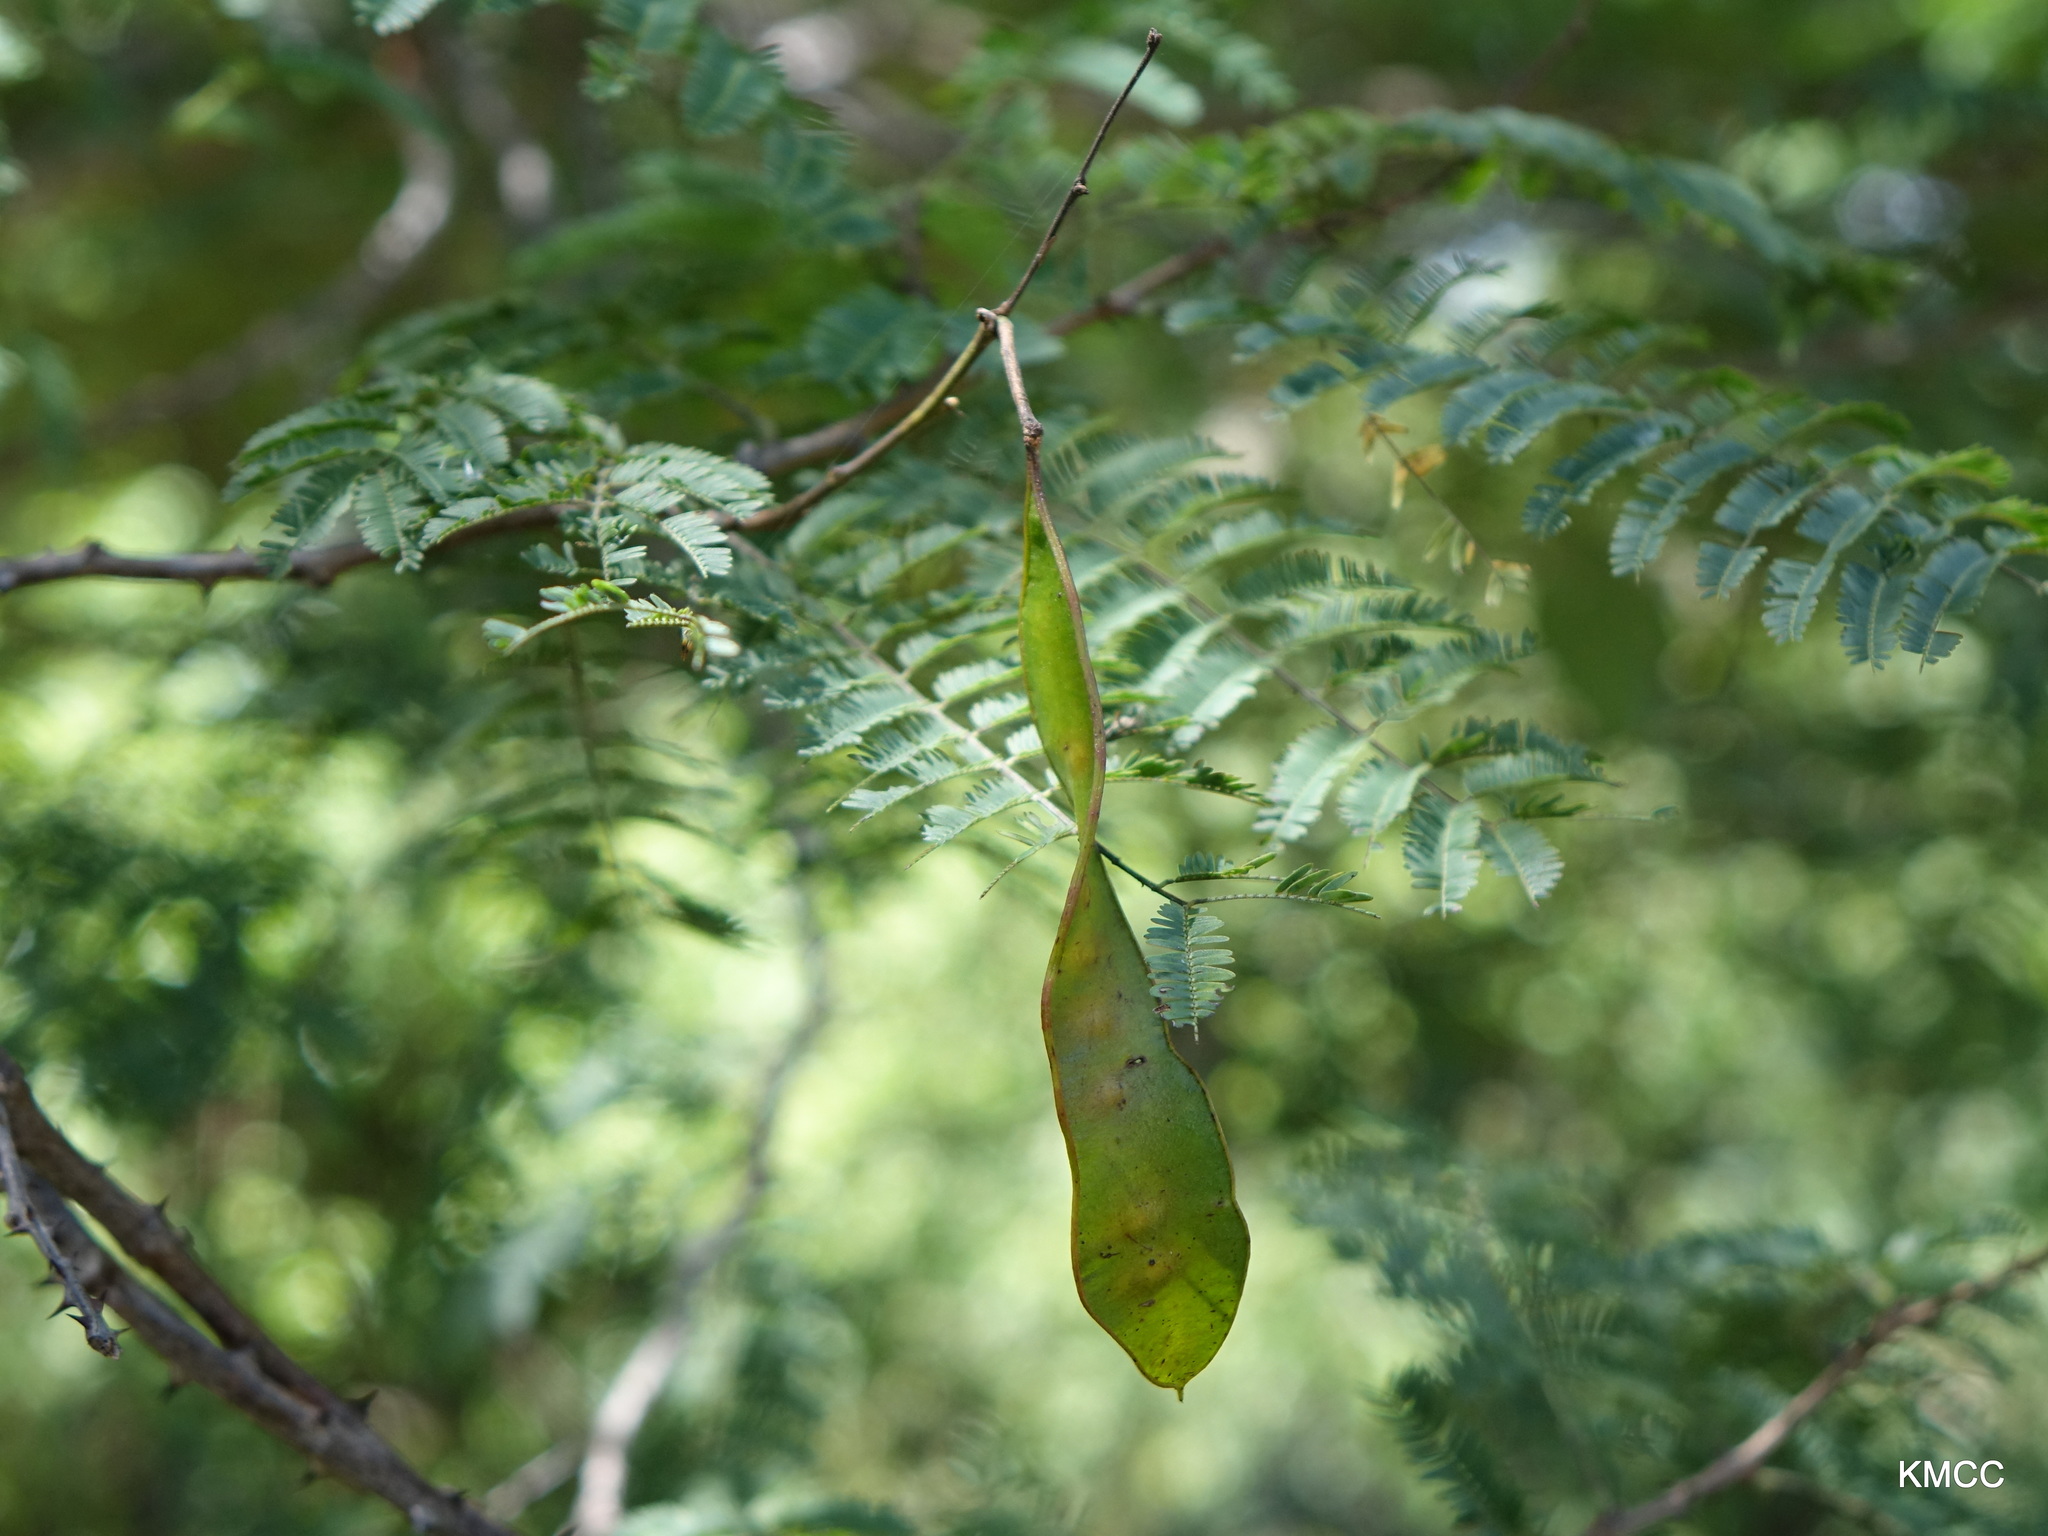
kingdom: Plantae
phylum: Tracheophyta
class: Magnoliopsida
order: Fabales
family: Fabaceae
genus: Senegalia
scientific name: Senegalia sakalava
